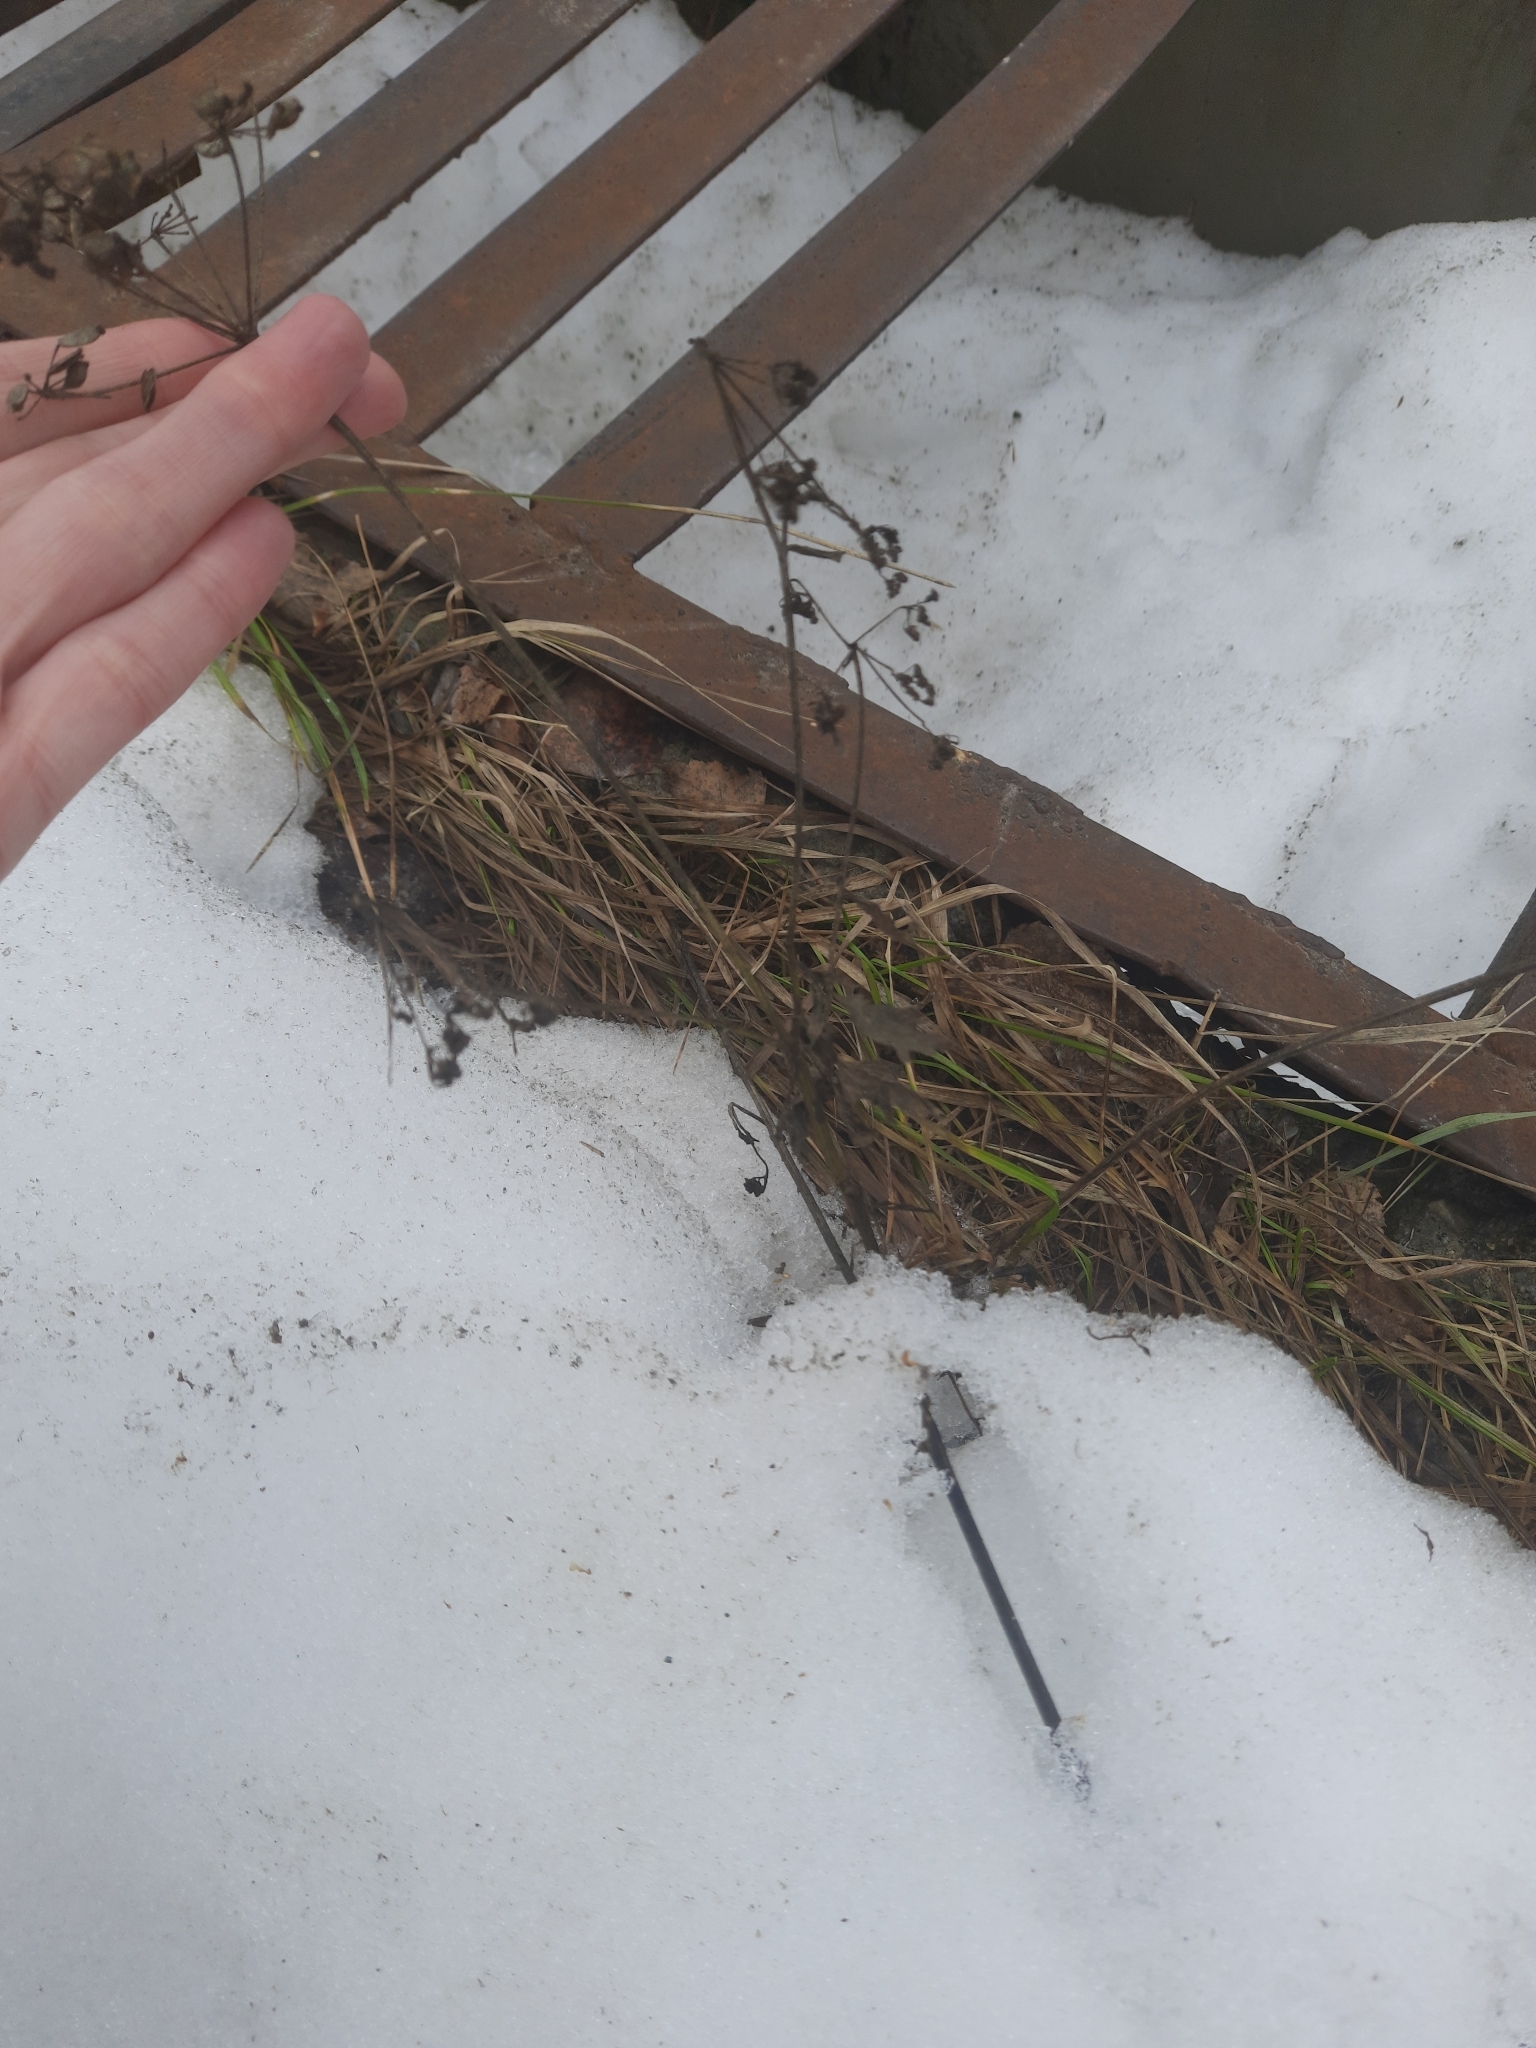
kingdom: Plantae
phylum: Tracheophyta
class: Magnoliopsida
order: Apiales
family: Apiaceae
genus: Pastinaca
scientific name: Pastinaca sativa
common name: Wild parsnip
